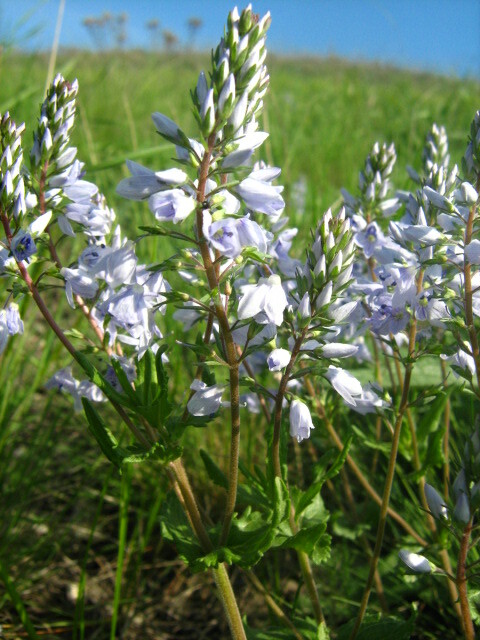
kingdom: Plantae
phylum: Tracheophyta
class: Magnoliopsida
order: Lamiales
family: Plantaginaceae
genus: Veronica
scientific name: Veronica prostrata
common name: Prostrate speedwell
